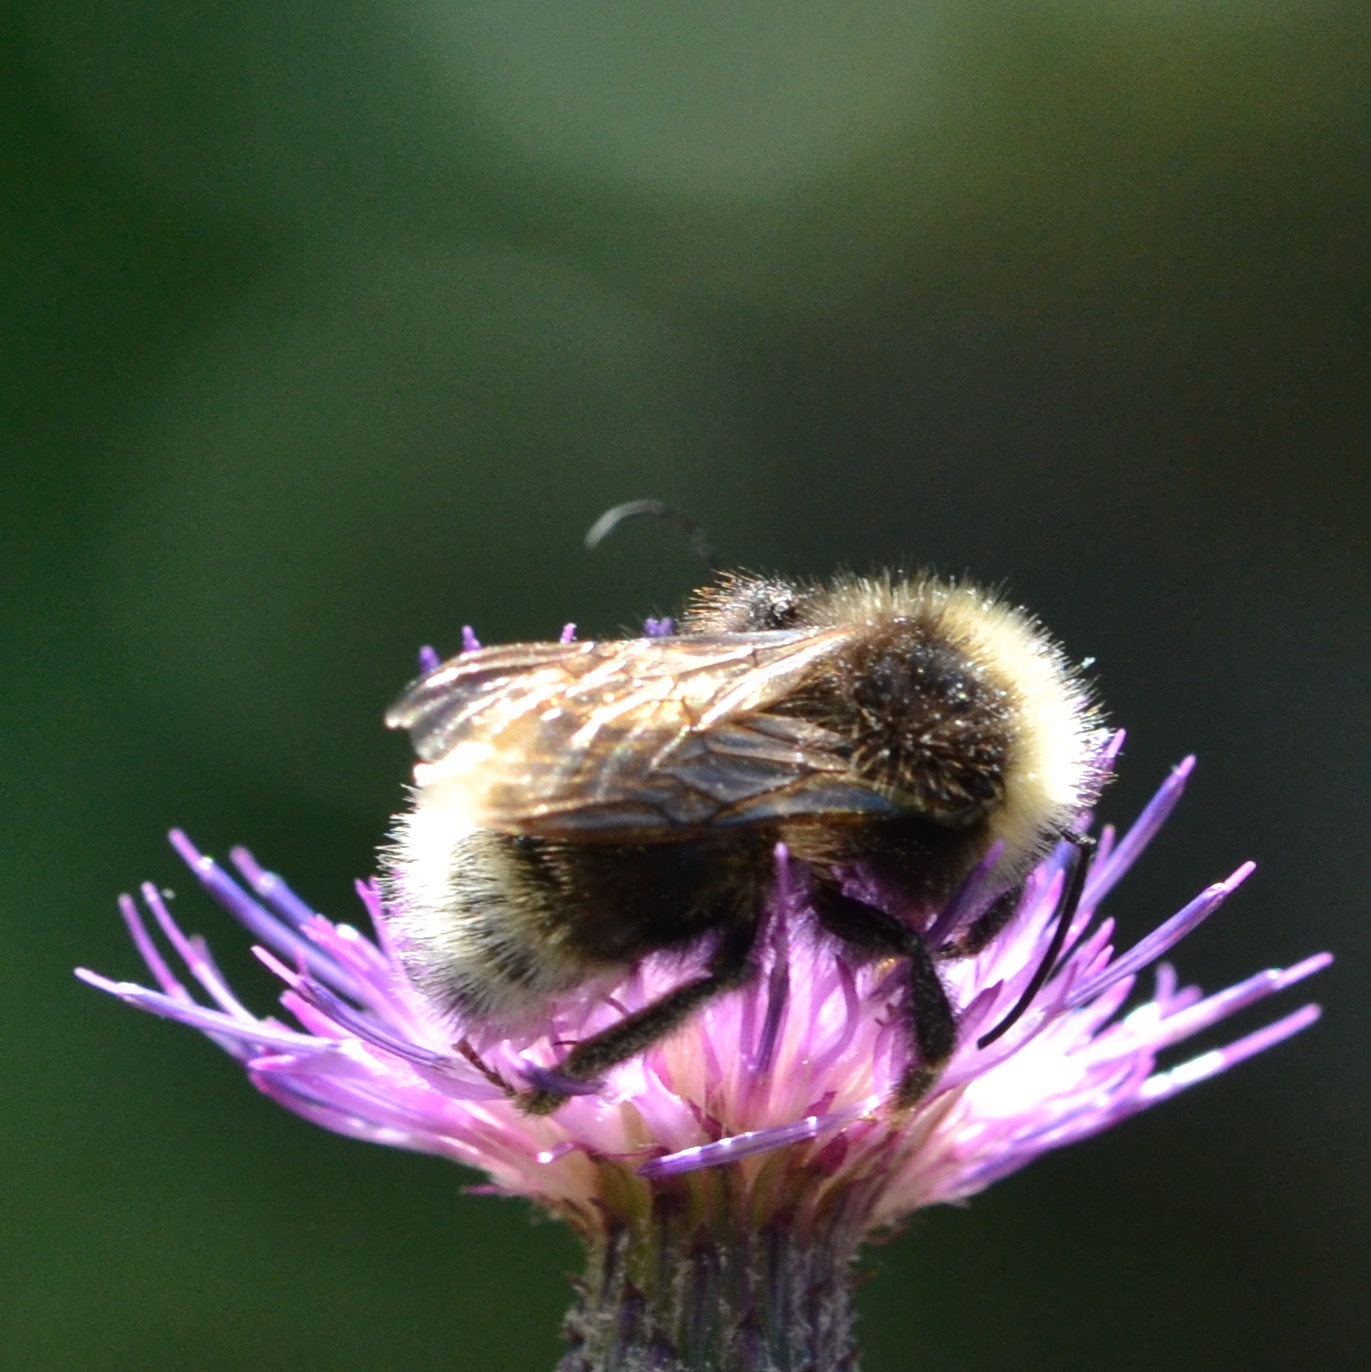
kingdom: Animalia
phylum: Arthropoda
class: Insecta
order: Hymenoptera
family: Apidae
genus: Bombus
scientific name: Bombus bohemicus
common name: Gypsy cuckoo bee
